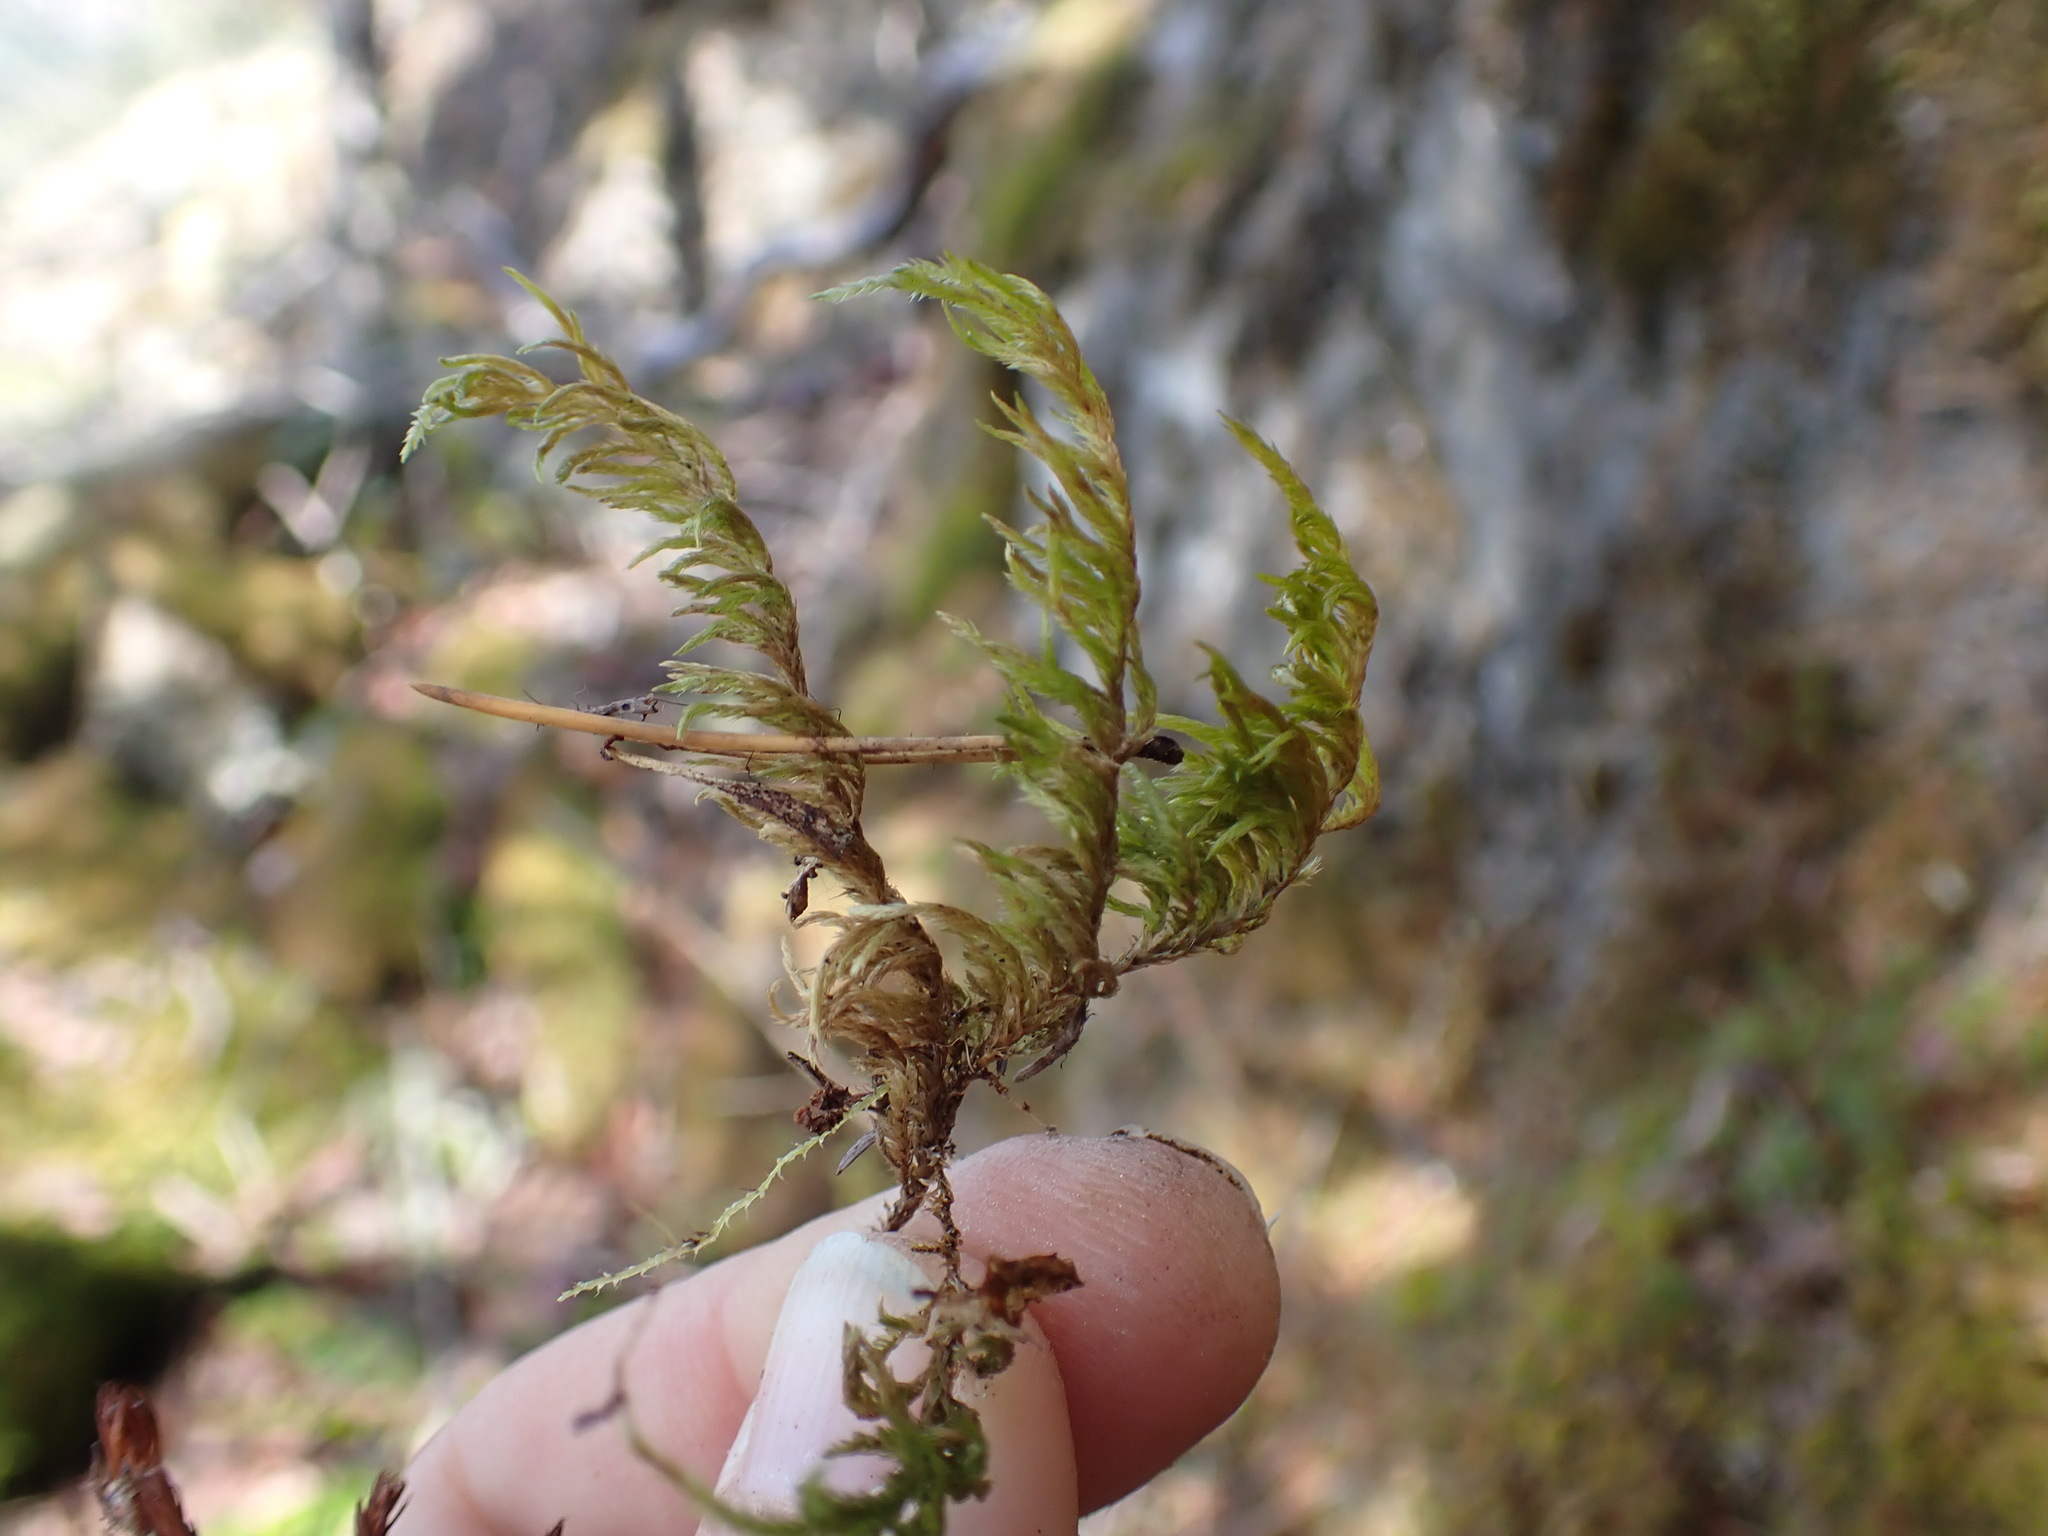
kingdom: Plantae
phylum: Bryophyta
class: Bryopsida
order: Hypnales
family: Cryphaeaceae
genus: Dendroalsia
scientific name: Dendroalsia abietina
